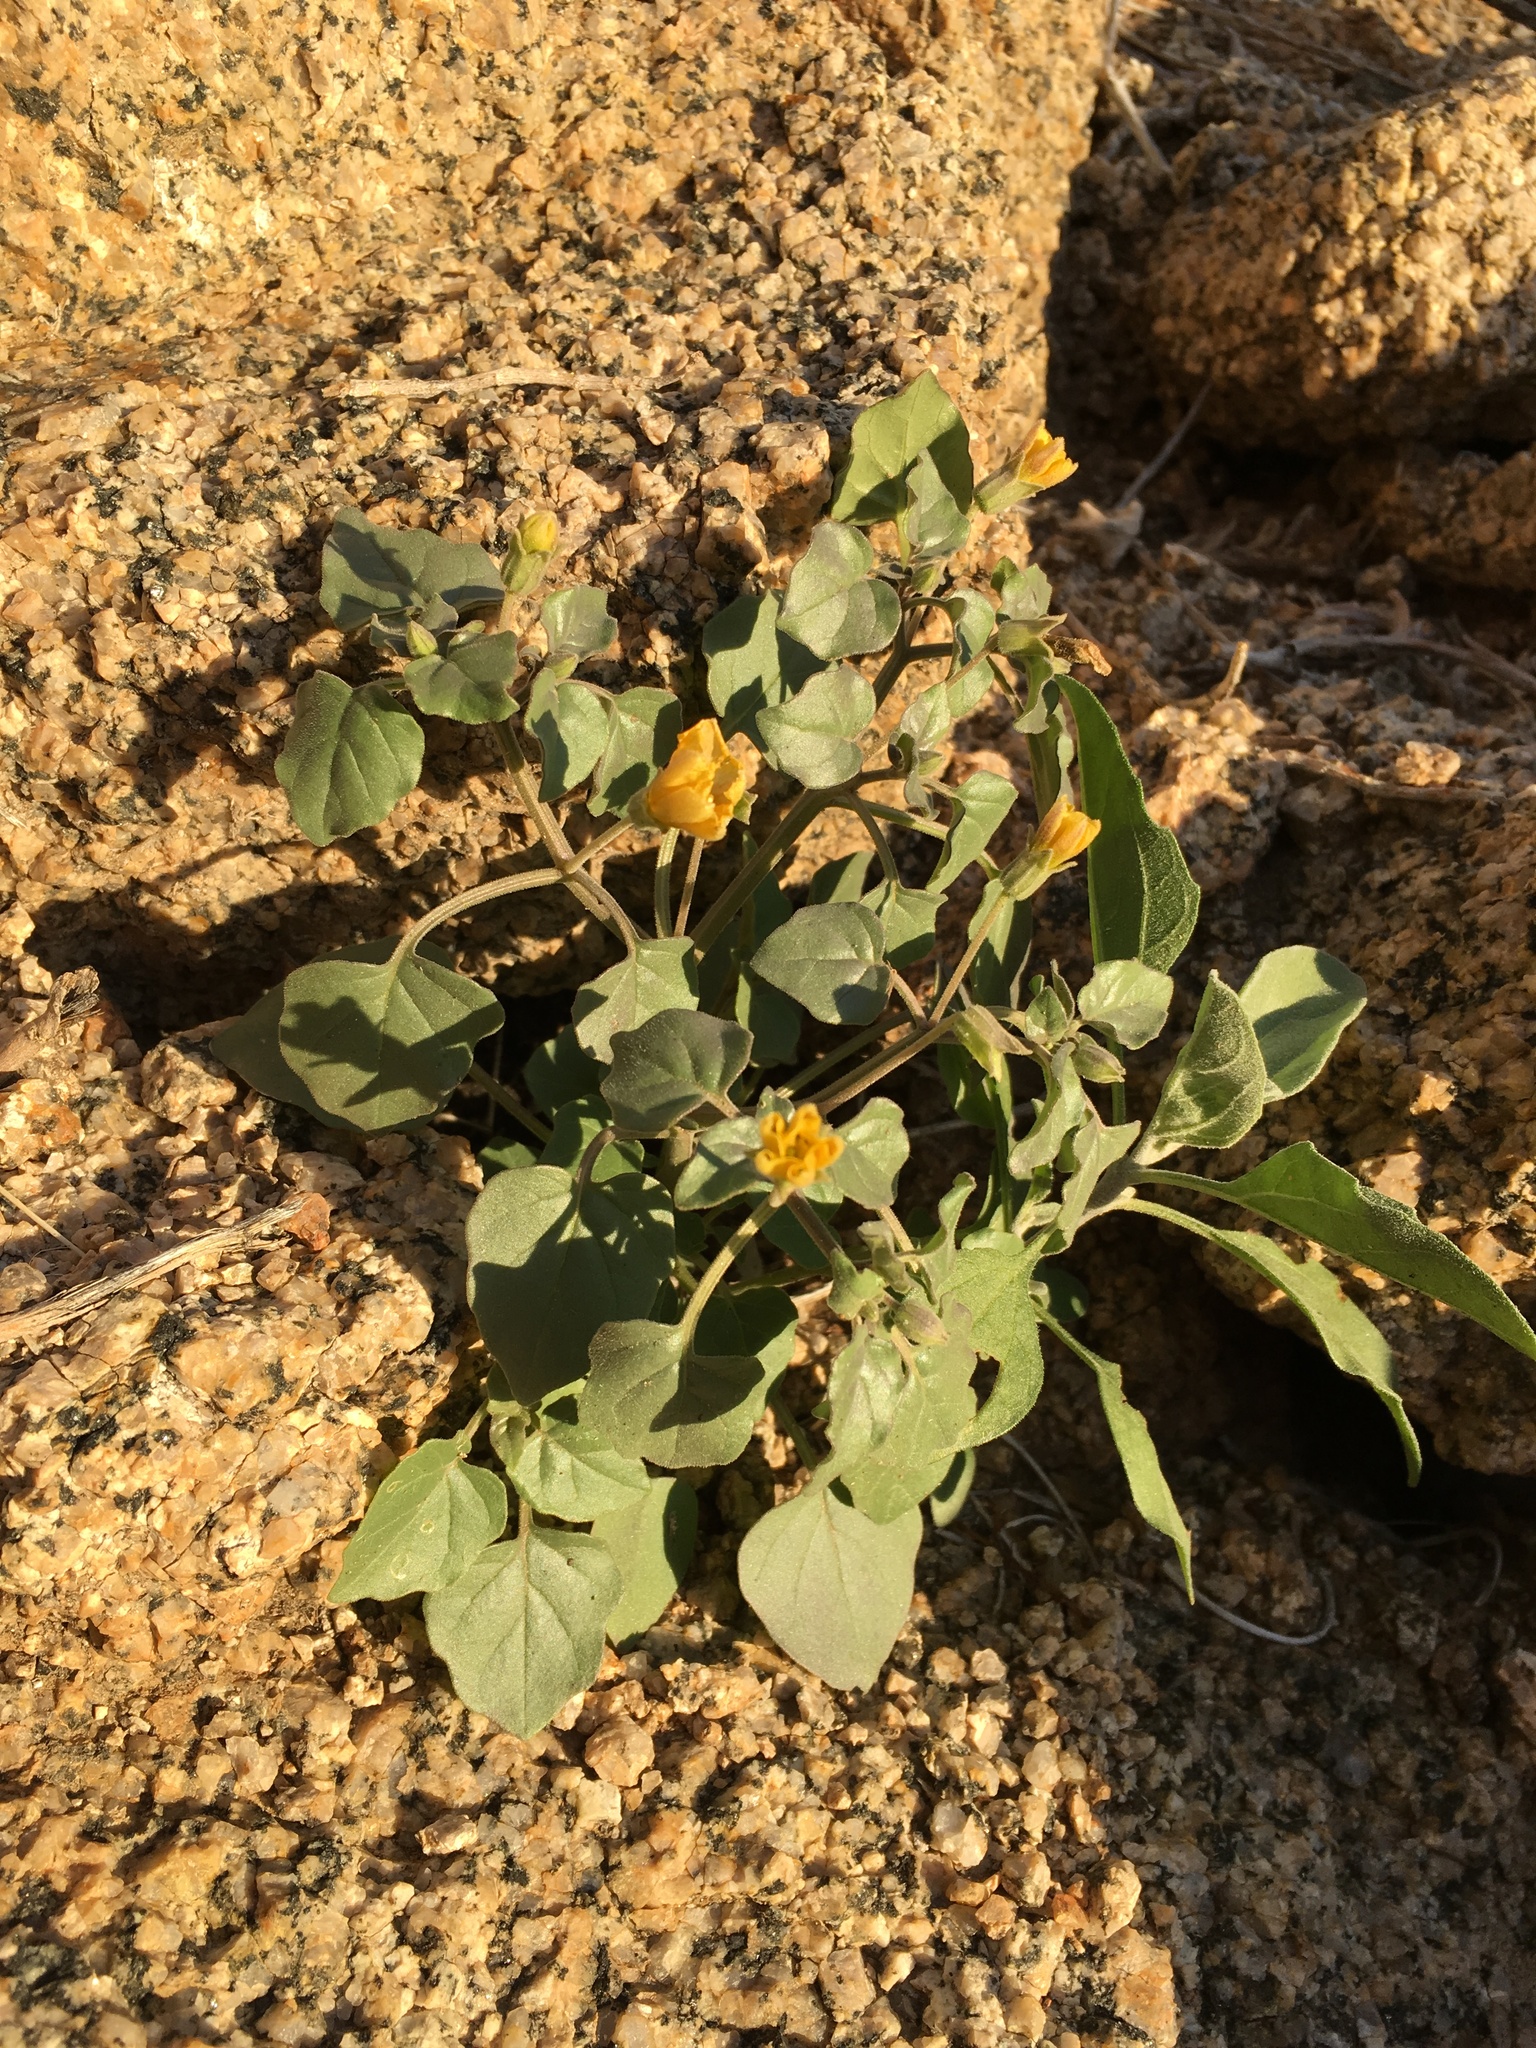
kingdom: Plantae
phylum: Tracheophyta
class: Magnoliopsida
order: Solanales
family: Solanaceae
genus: Physalis
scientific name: Physalis crassifolia
